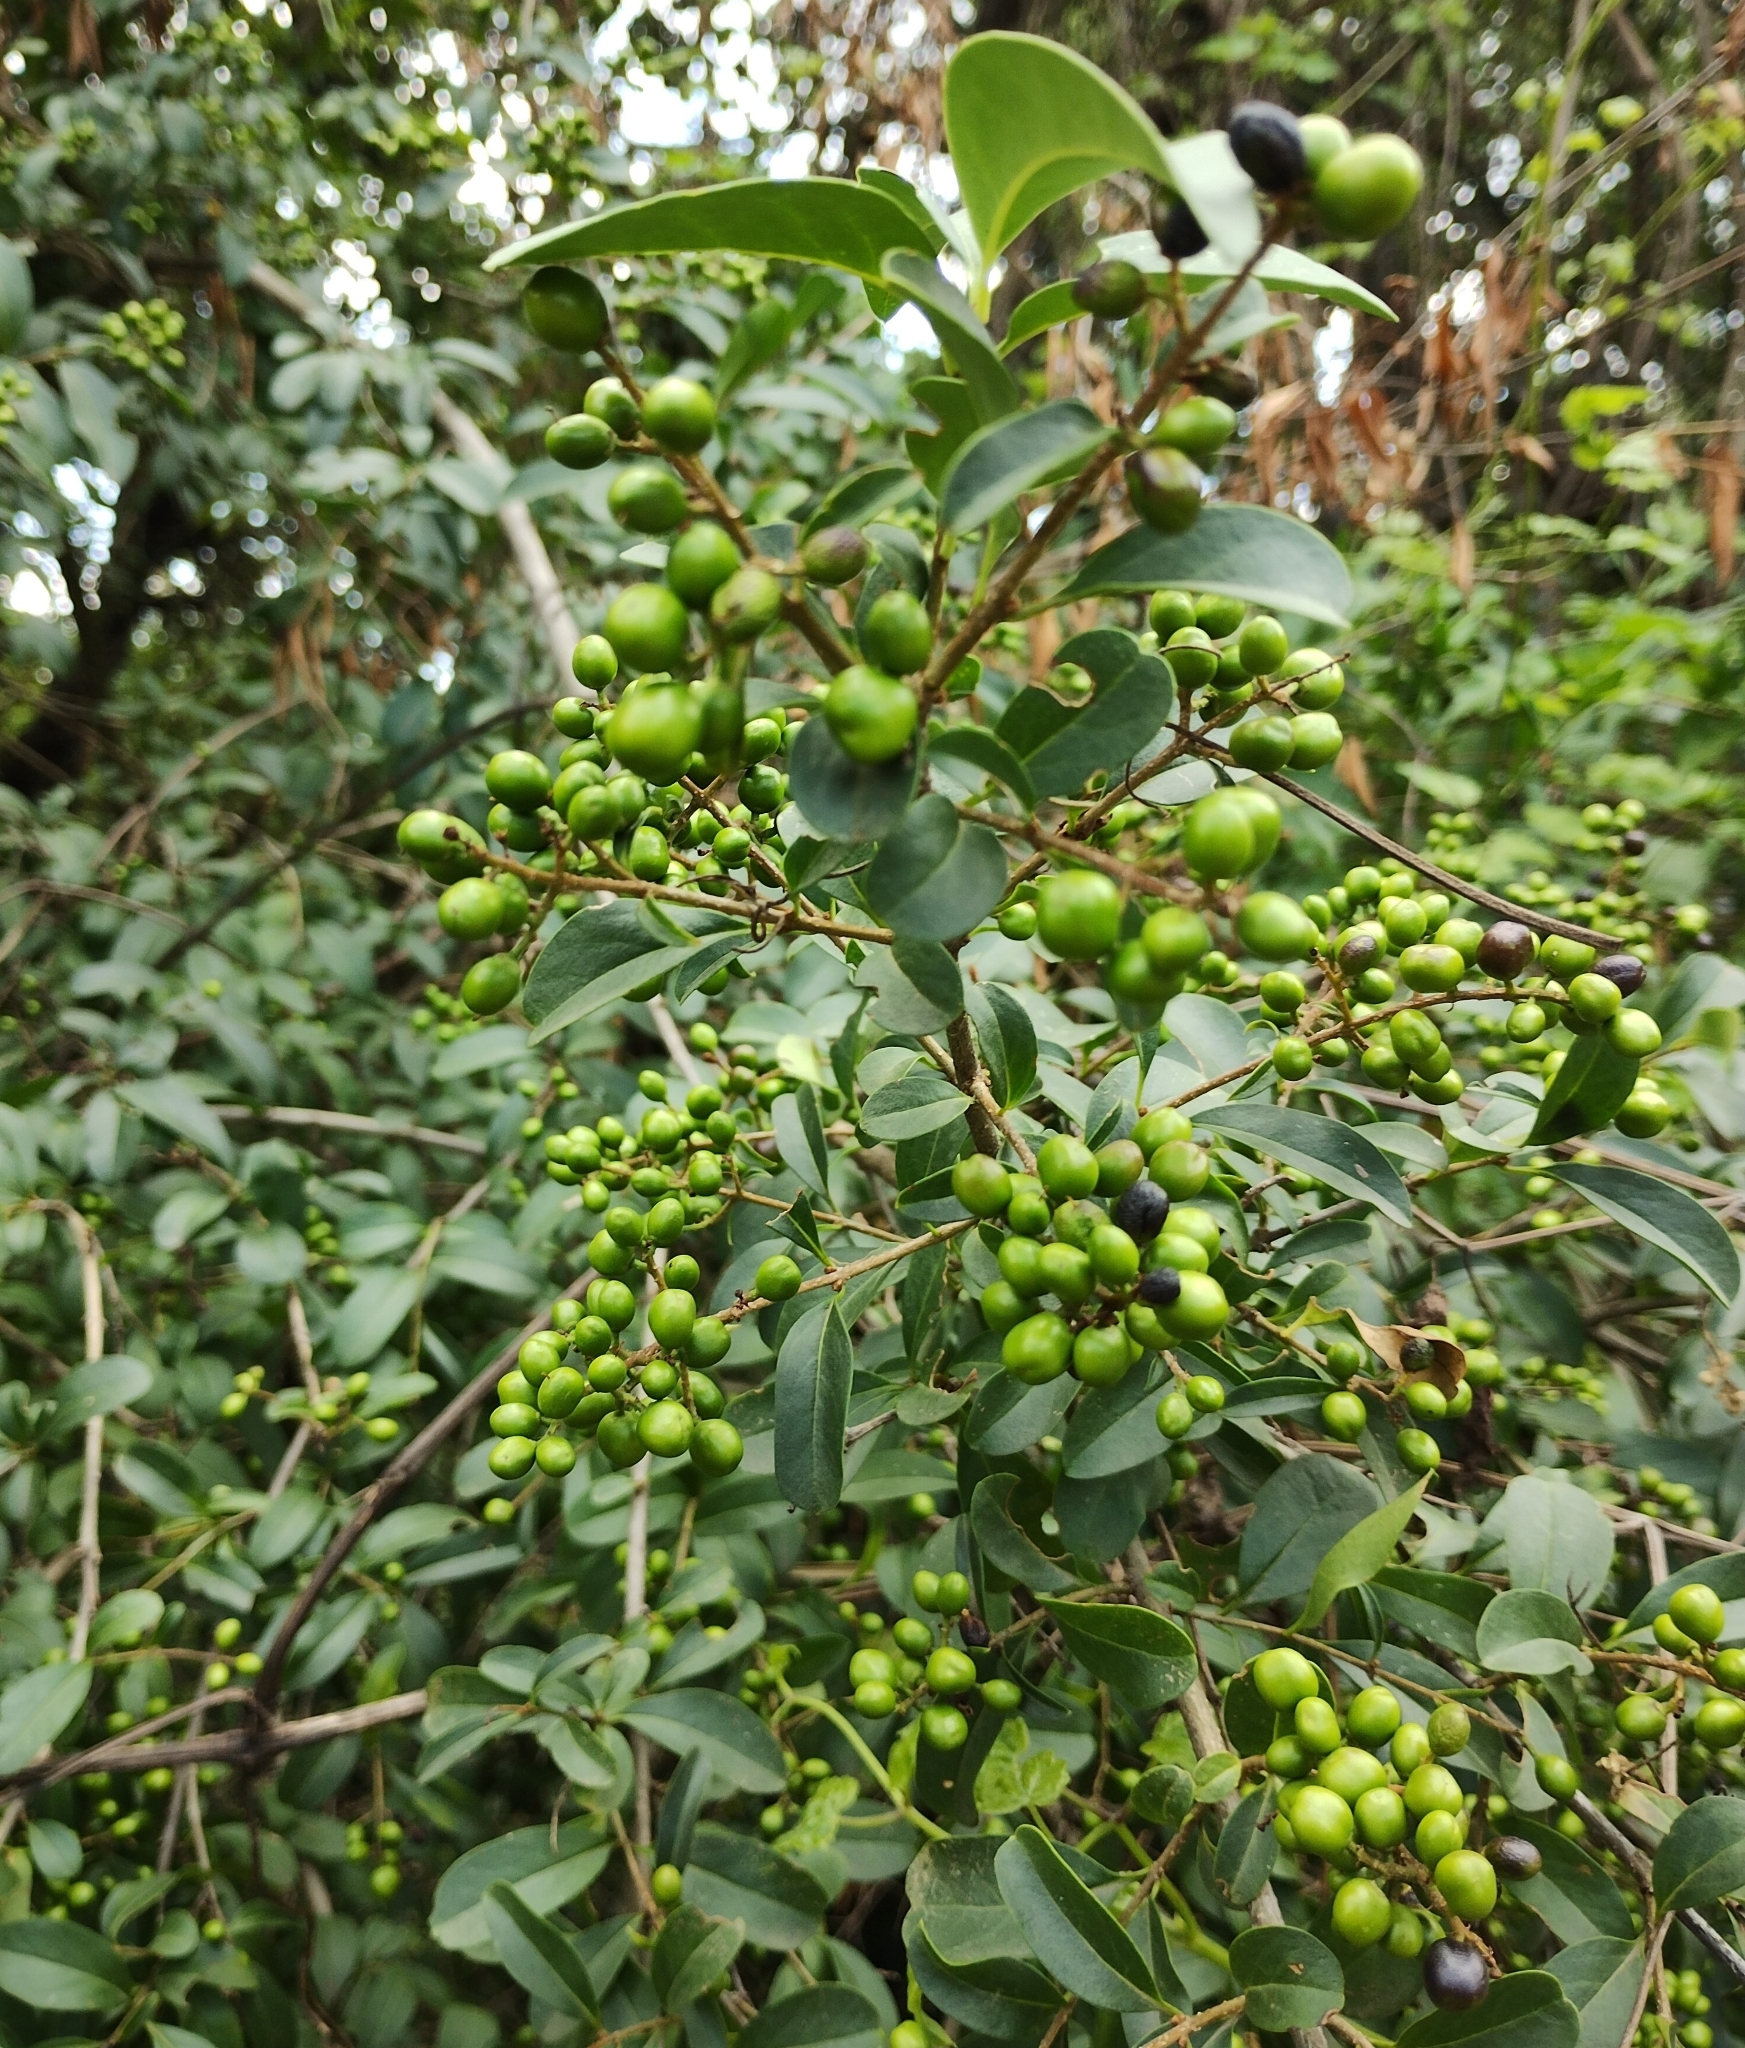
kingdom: Plantae
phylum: Tracheophyta
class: Magnoliopsida
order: Lamiales
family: Oleaceae
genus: Ligustrum
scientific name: Ligustrum vulgare
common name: Wild privet
